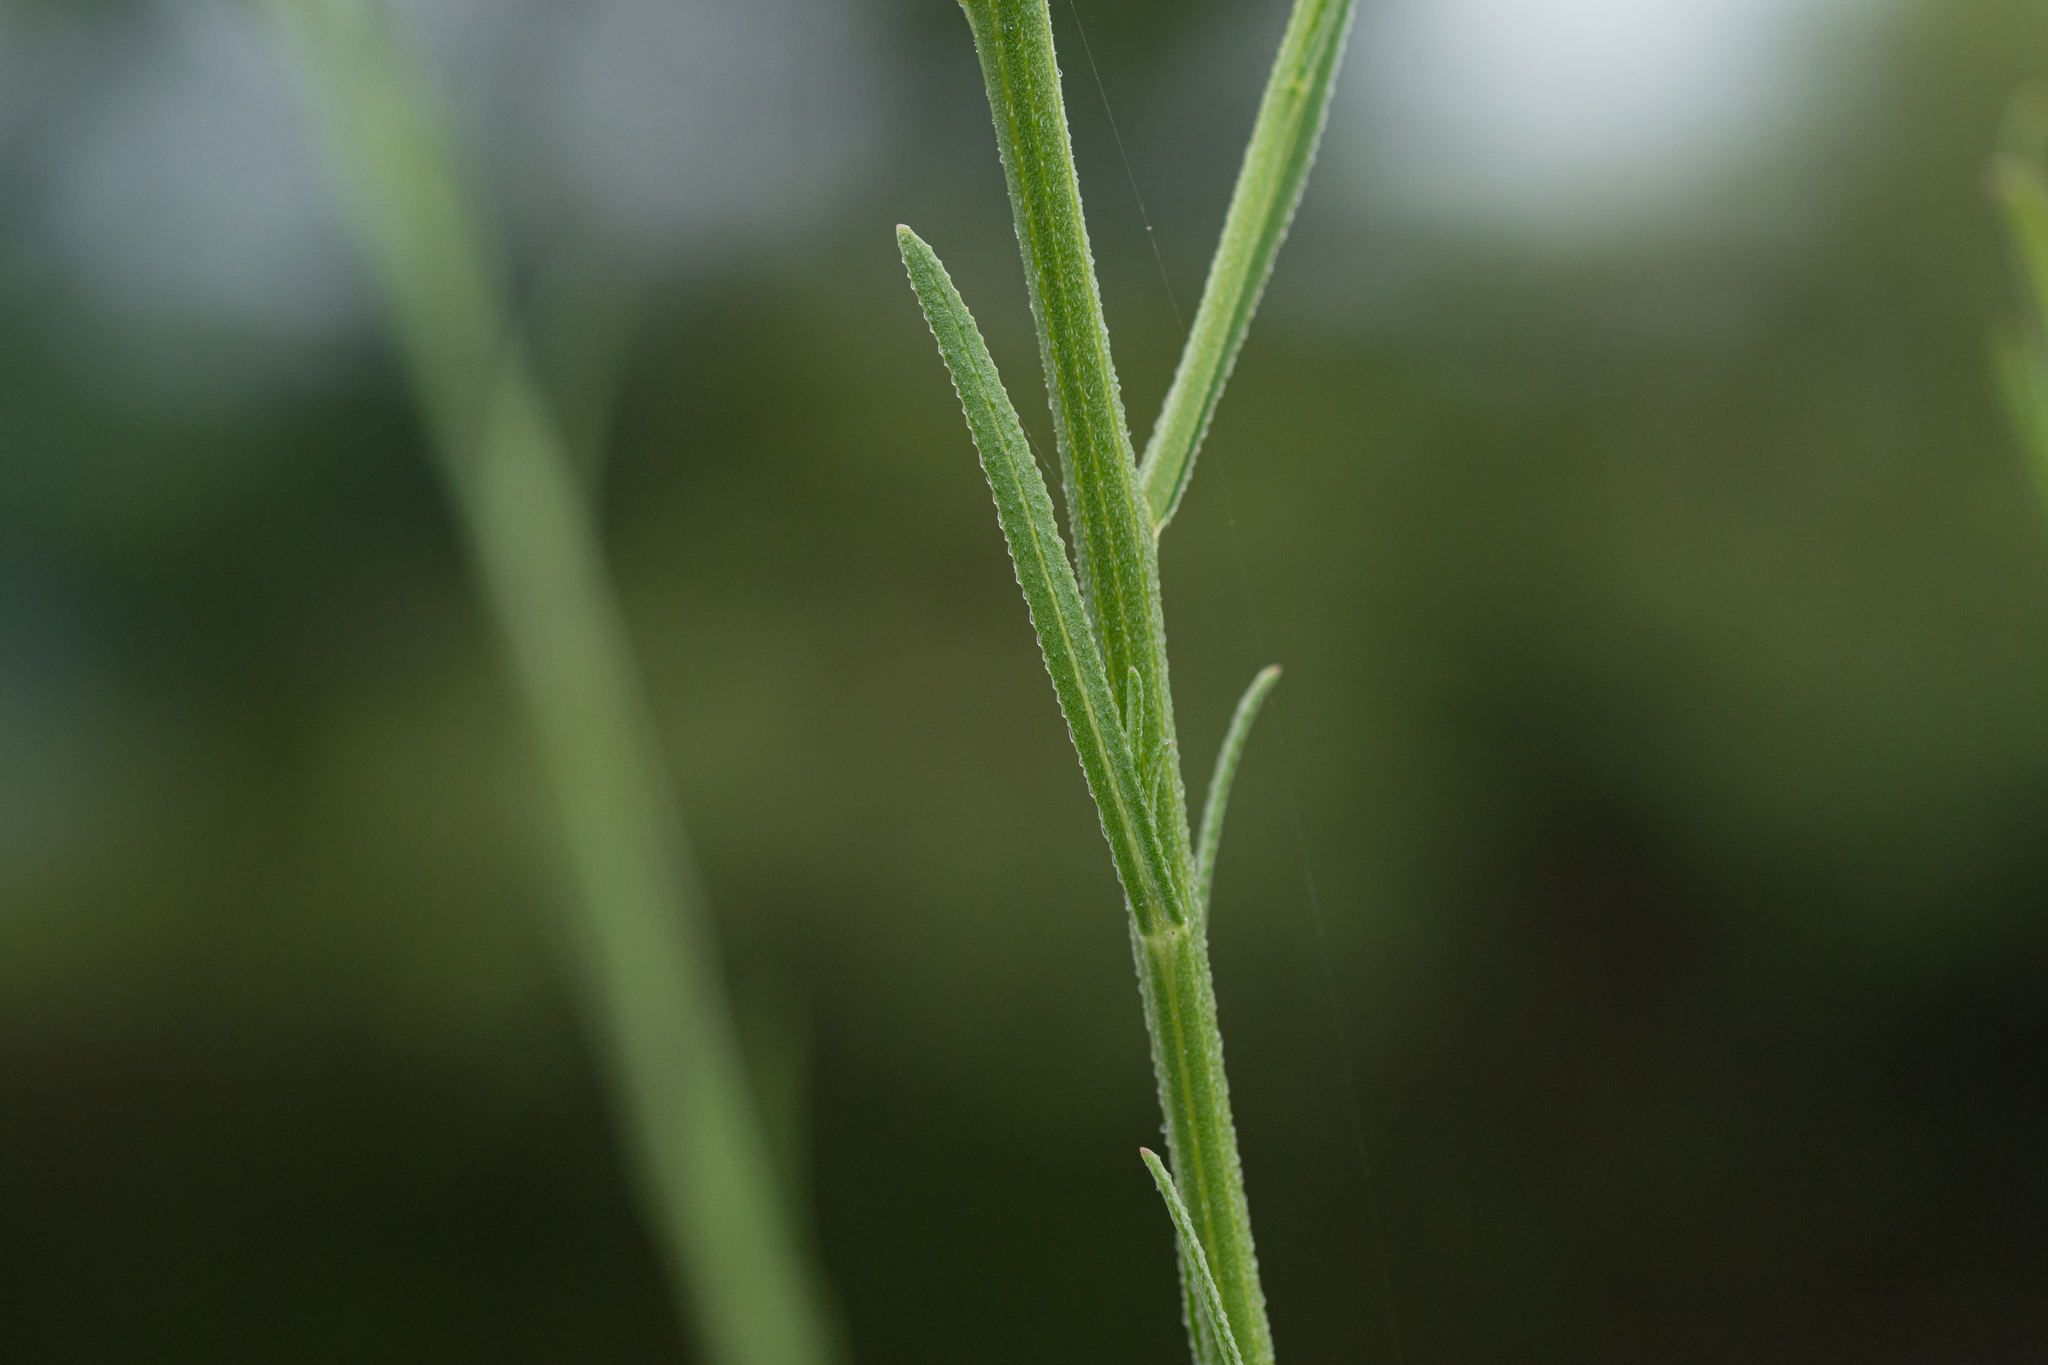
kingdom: Plantae
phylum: Tracheophyta
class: Magnoliopsida
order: Asterales
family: Asteraceae
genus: Heteropappus
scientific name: Heteropappus altaicus
